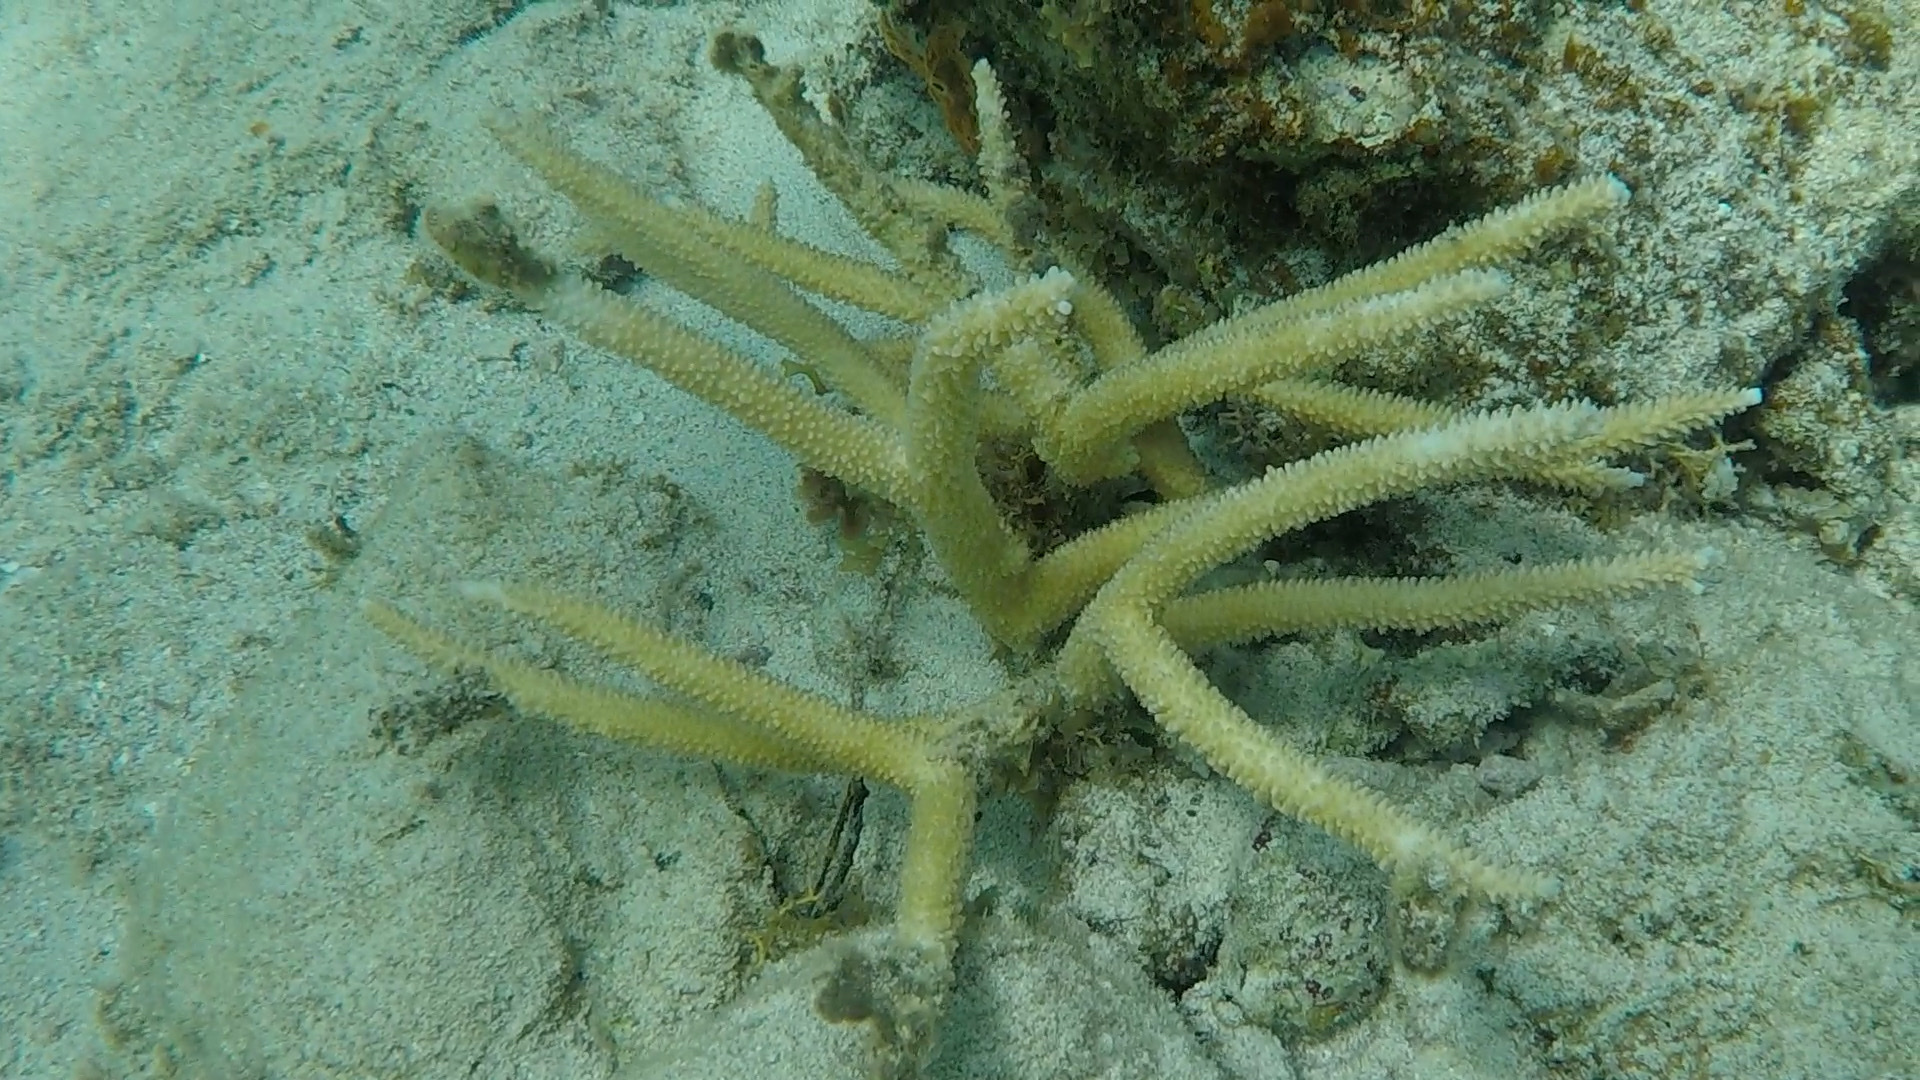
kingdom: Animalia
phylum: Cnidaria
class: Anthozoa
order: Scleractinia
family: Acroporidae
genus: Acropora
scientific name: Acropora cervicornis
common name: Staghorn coral
